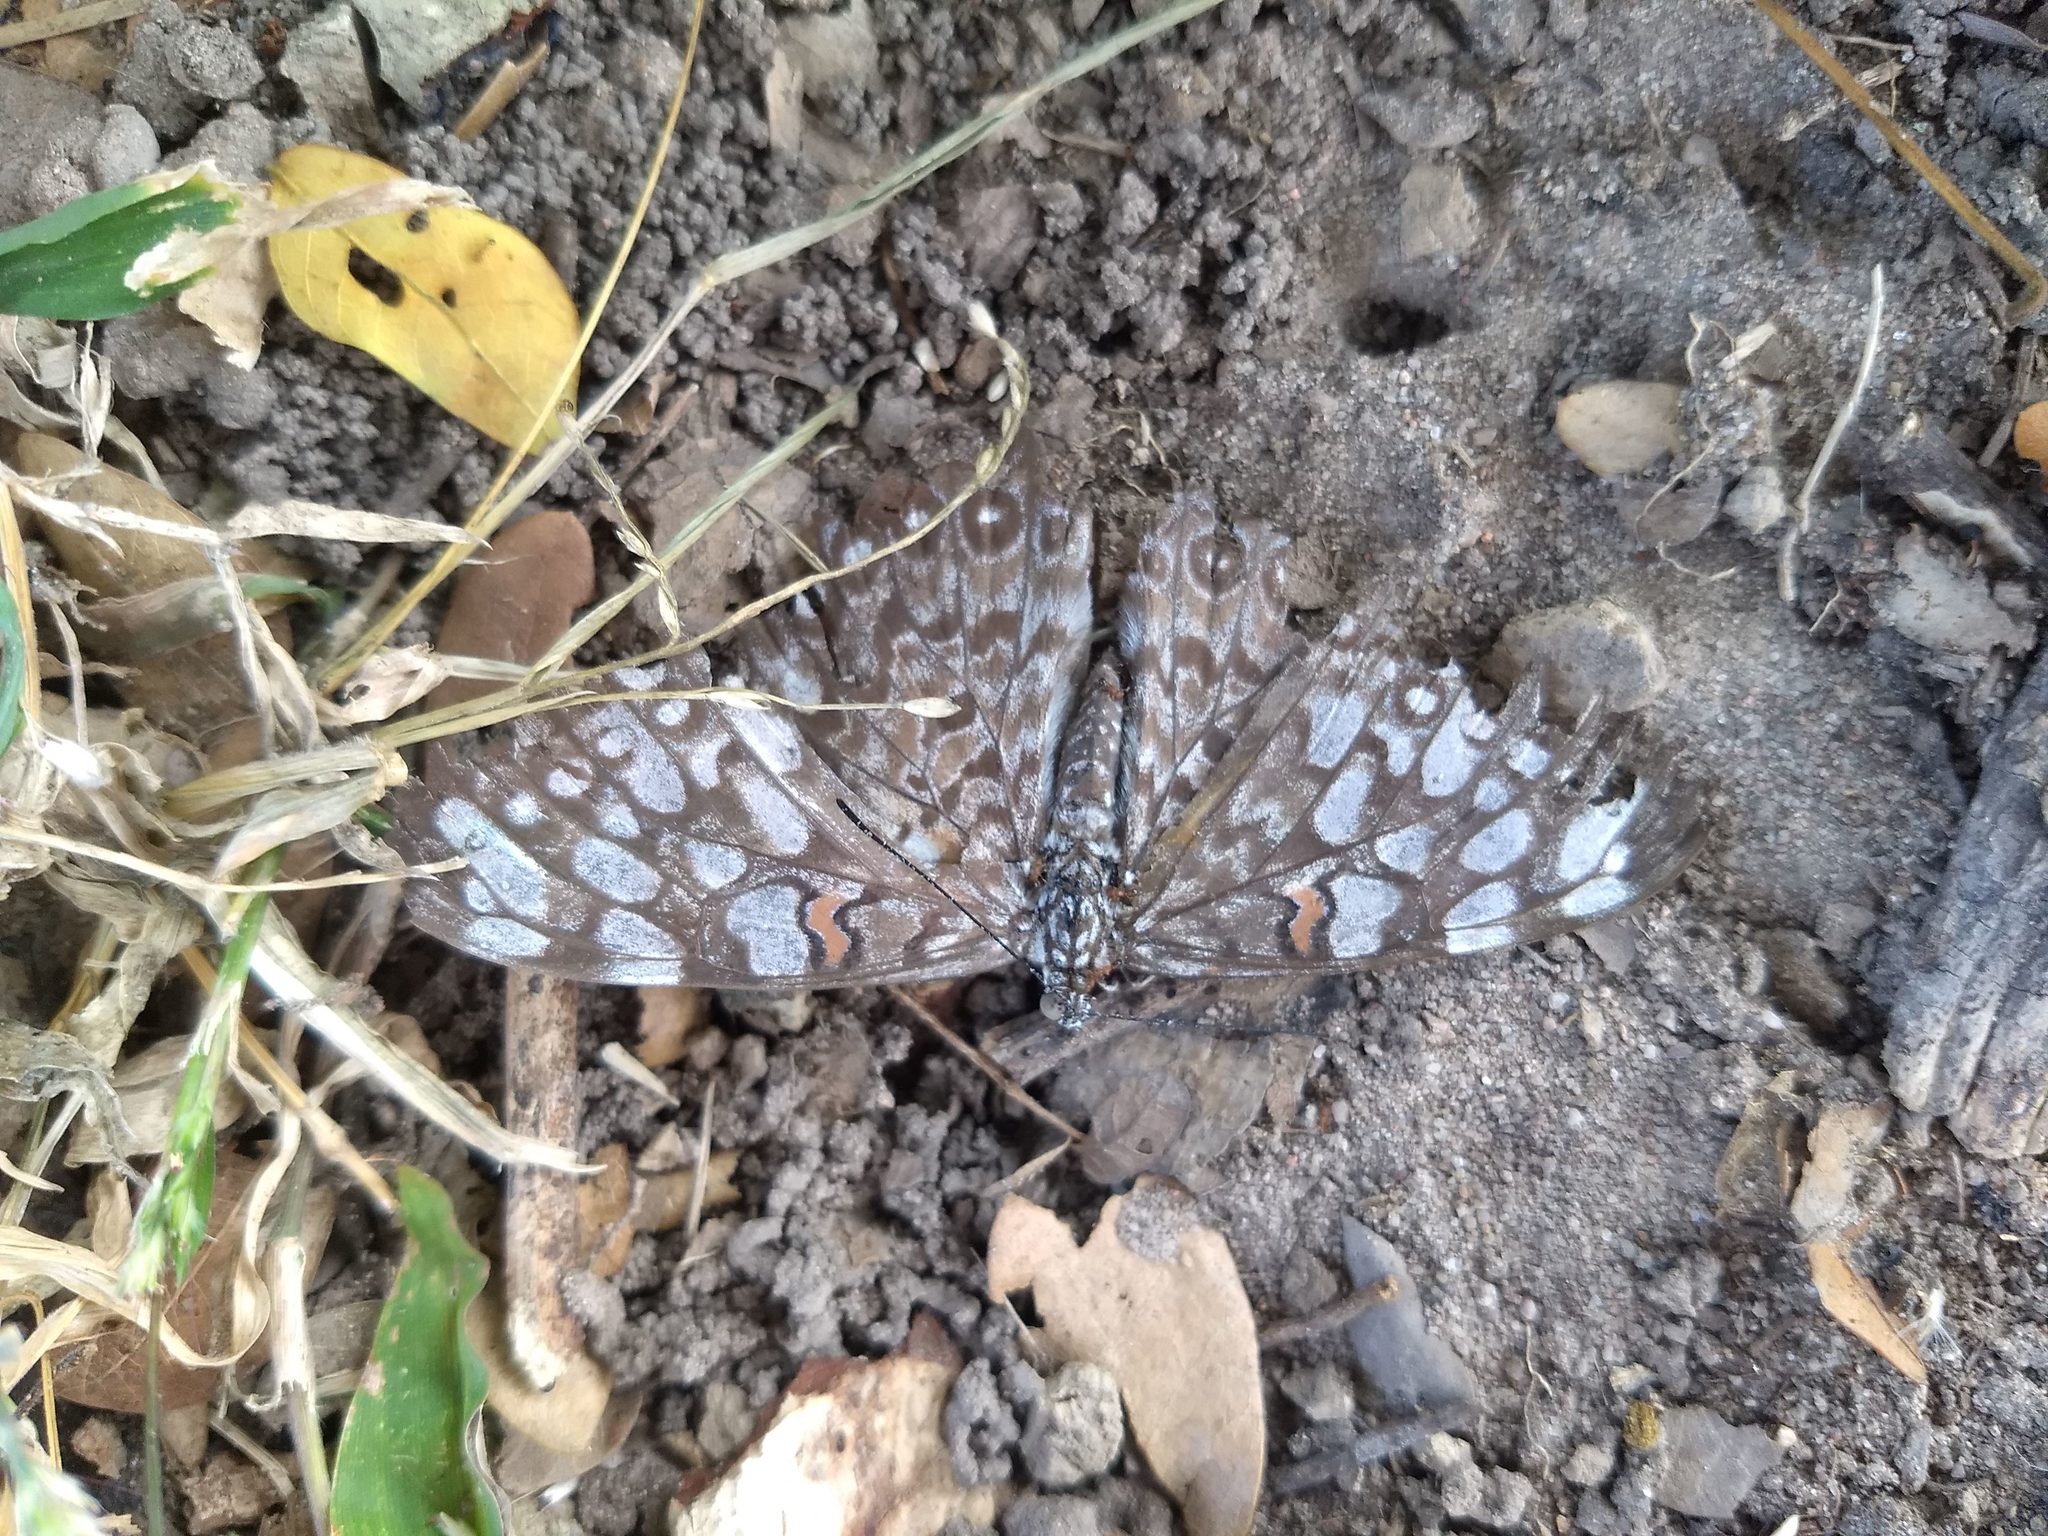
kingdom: Animalia
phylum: Arthropoda
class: Insecta
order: Lepidoptera
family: Nymphalidae
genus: Hamadryas
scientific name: Hamadryas feronia
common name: Variable cracker
